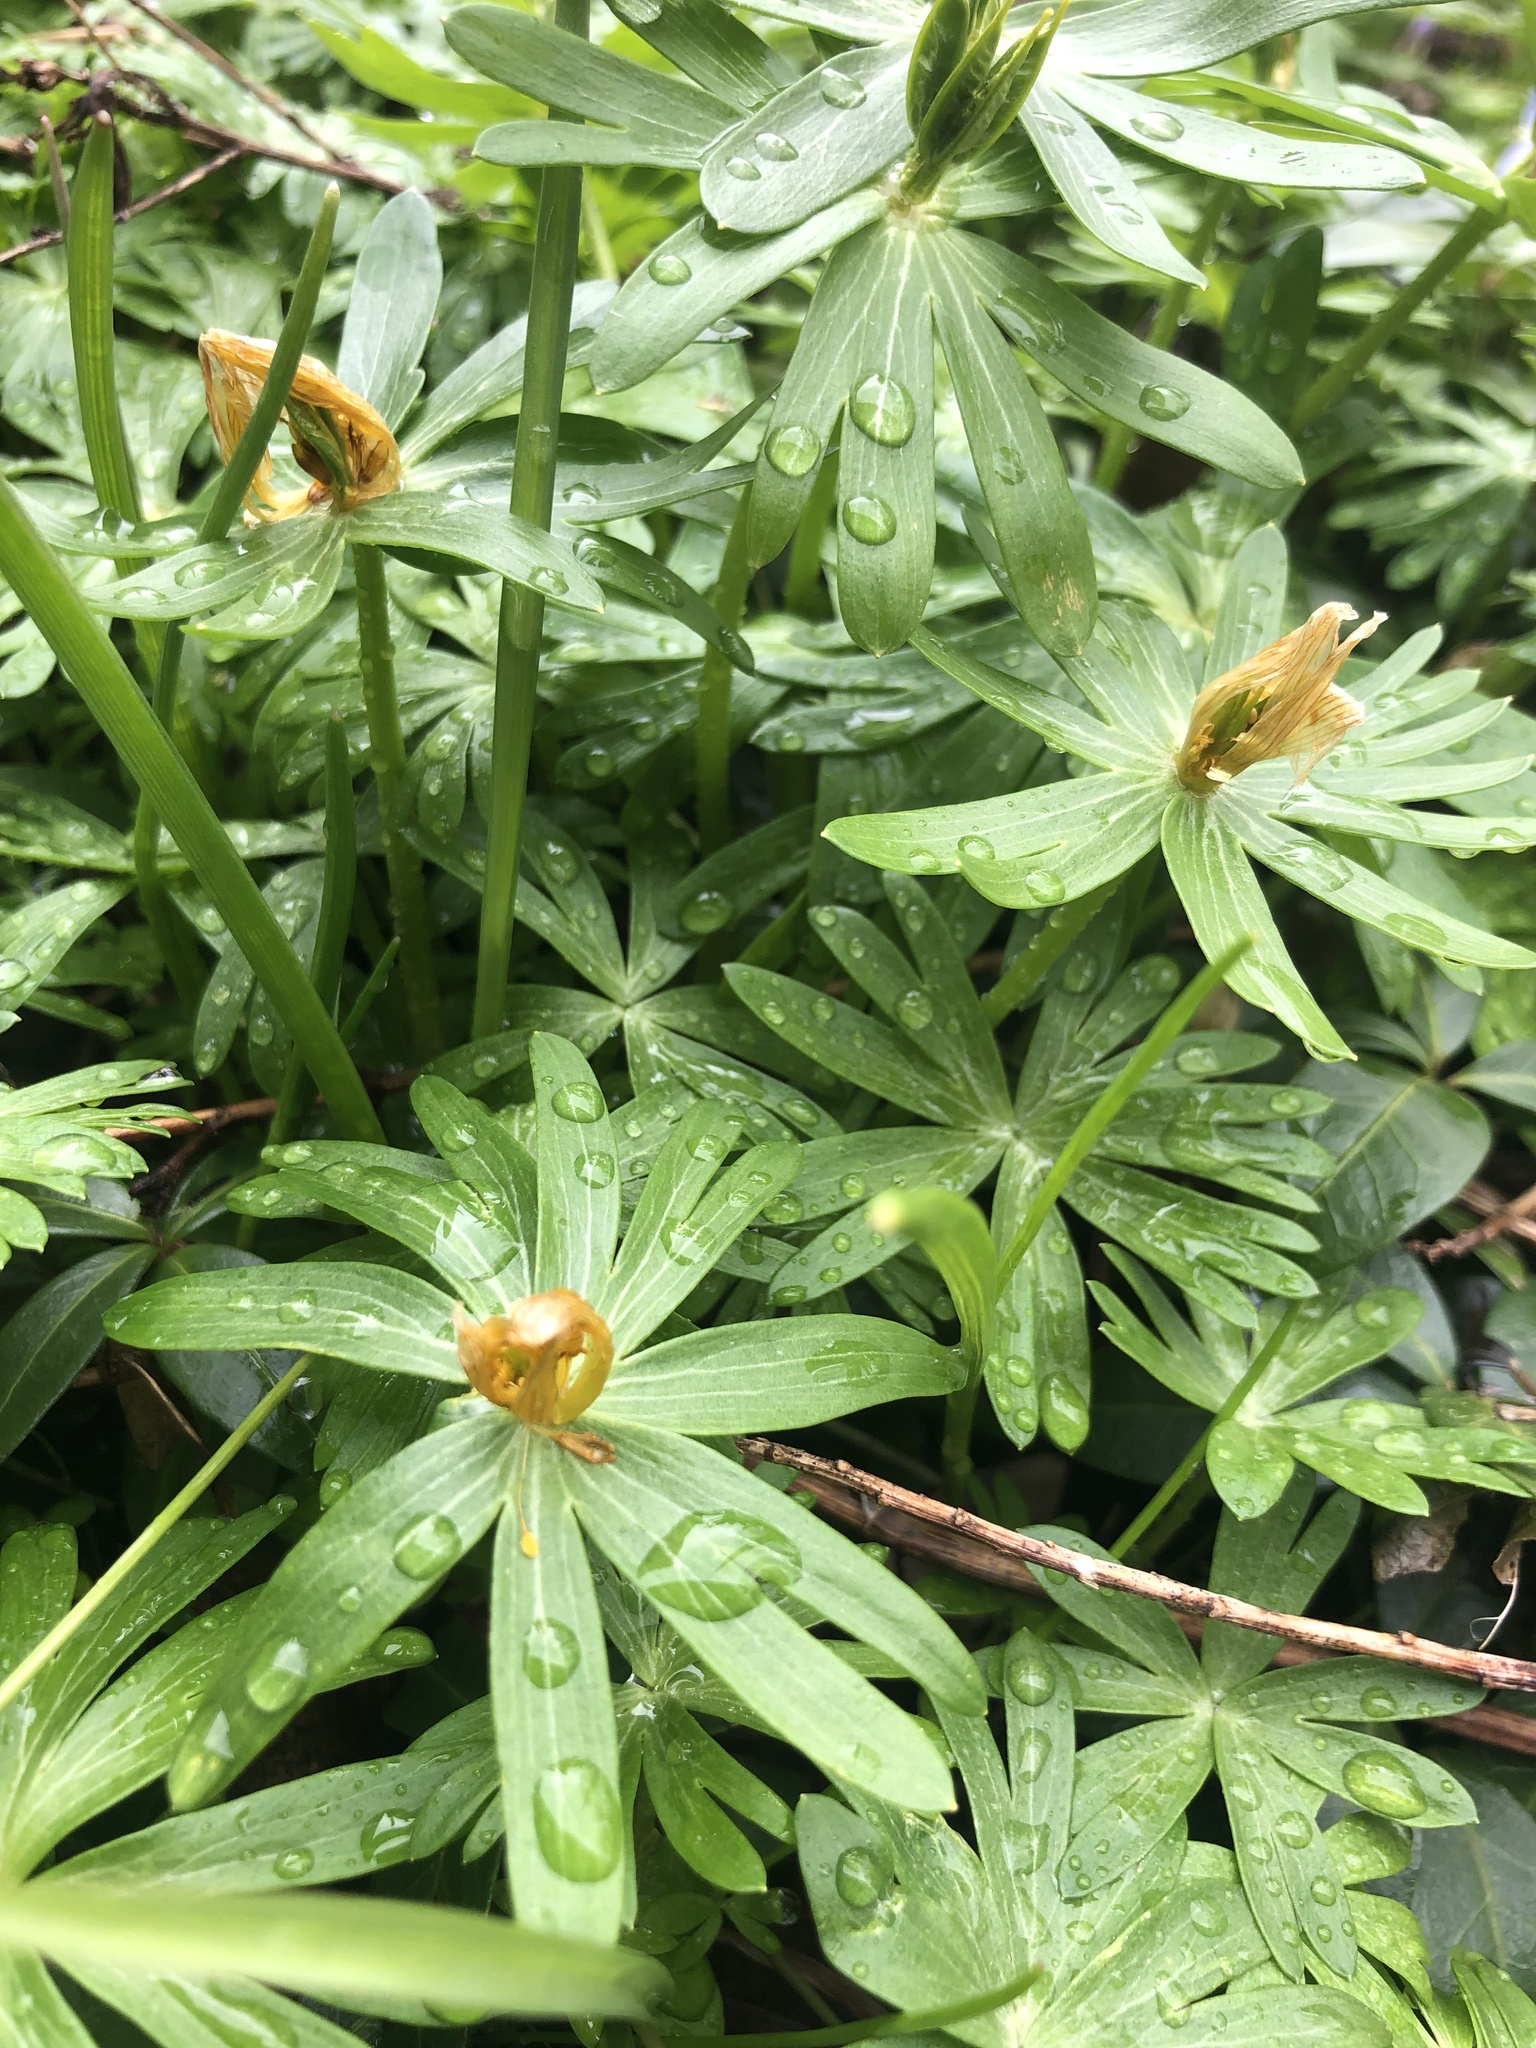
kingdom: Plantae
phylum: Tracheophyta
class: Magnoliopsida
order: Ranunculales
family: Ranunculaceae
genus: Eranthis
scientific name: Eranthis hyemalis
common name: Winter aconite
